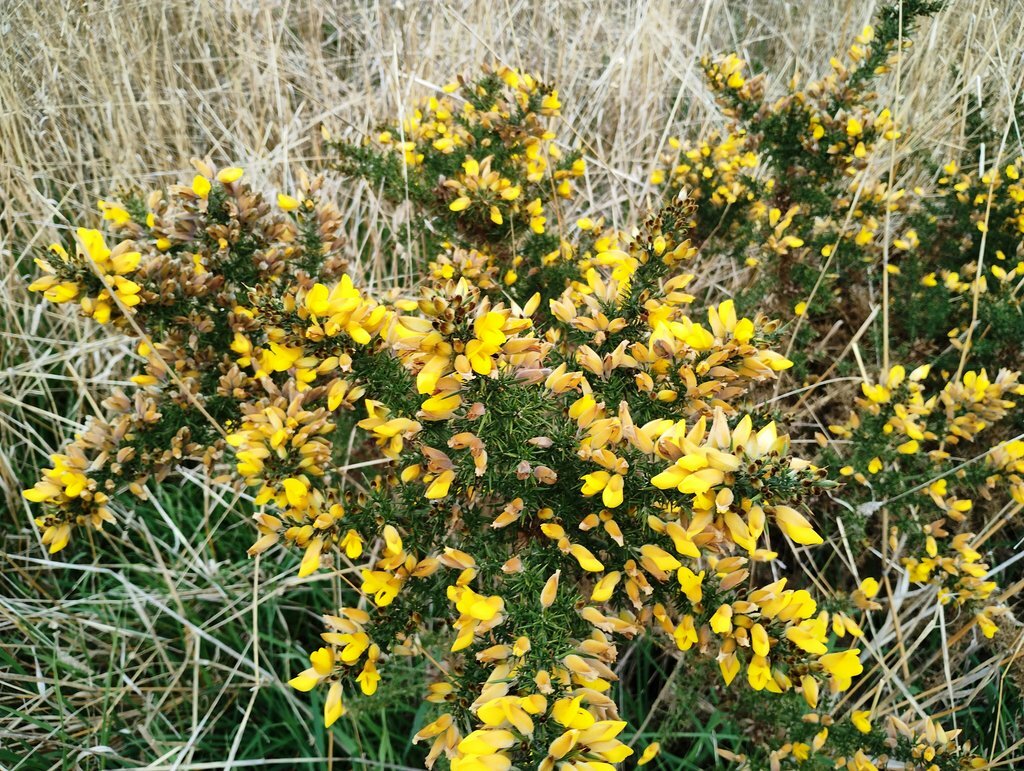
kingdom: Plantae
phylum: Tracheophyta
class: Magnoliopsida
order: Fabales
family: Fabaceae
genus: Ulex
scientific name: Ulex europaeus
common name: Common gorse
